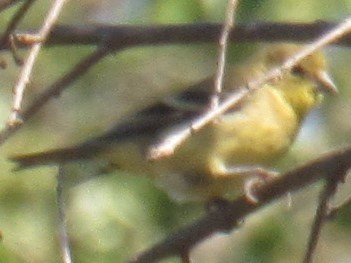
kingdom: Animalia
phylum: Chordata
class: Aves
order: Passeriformes
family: Fringillidae
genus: Spinus
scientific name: Spinus tristis
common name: American goldfinch
